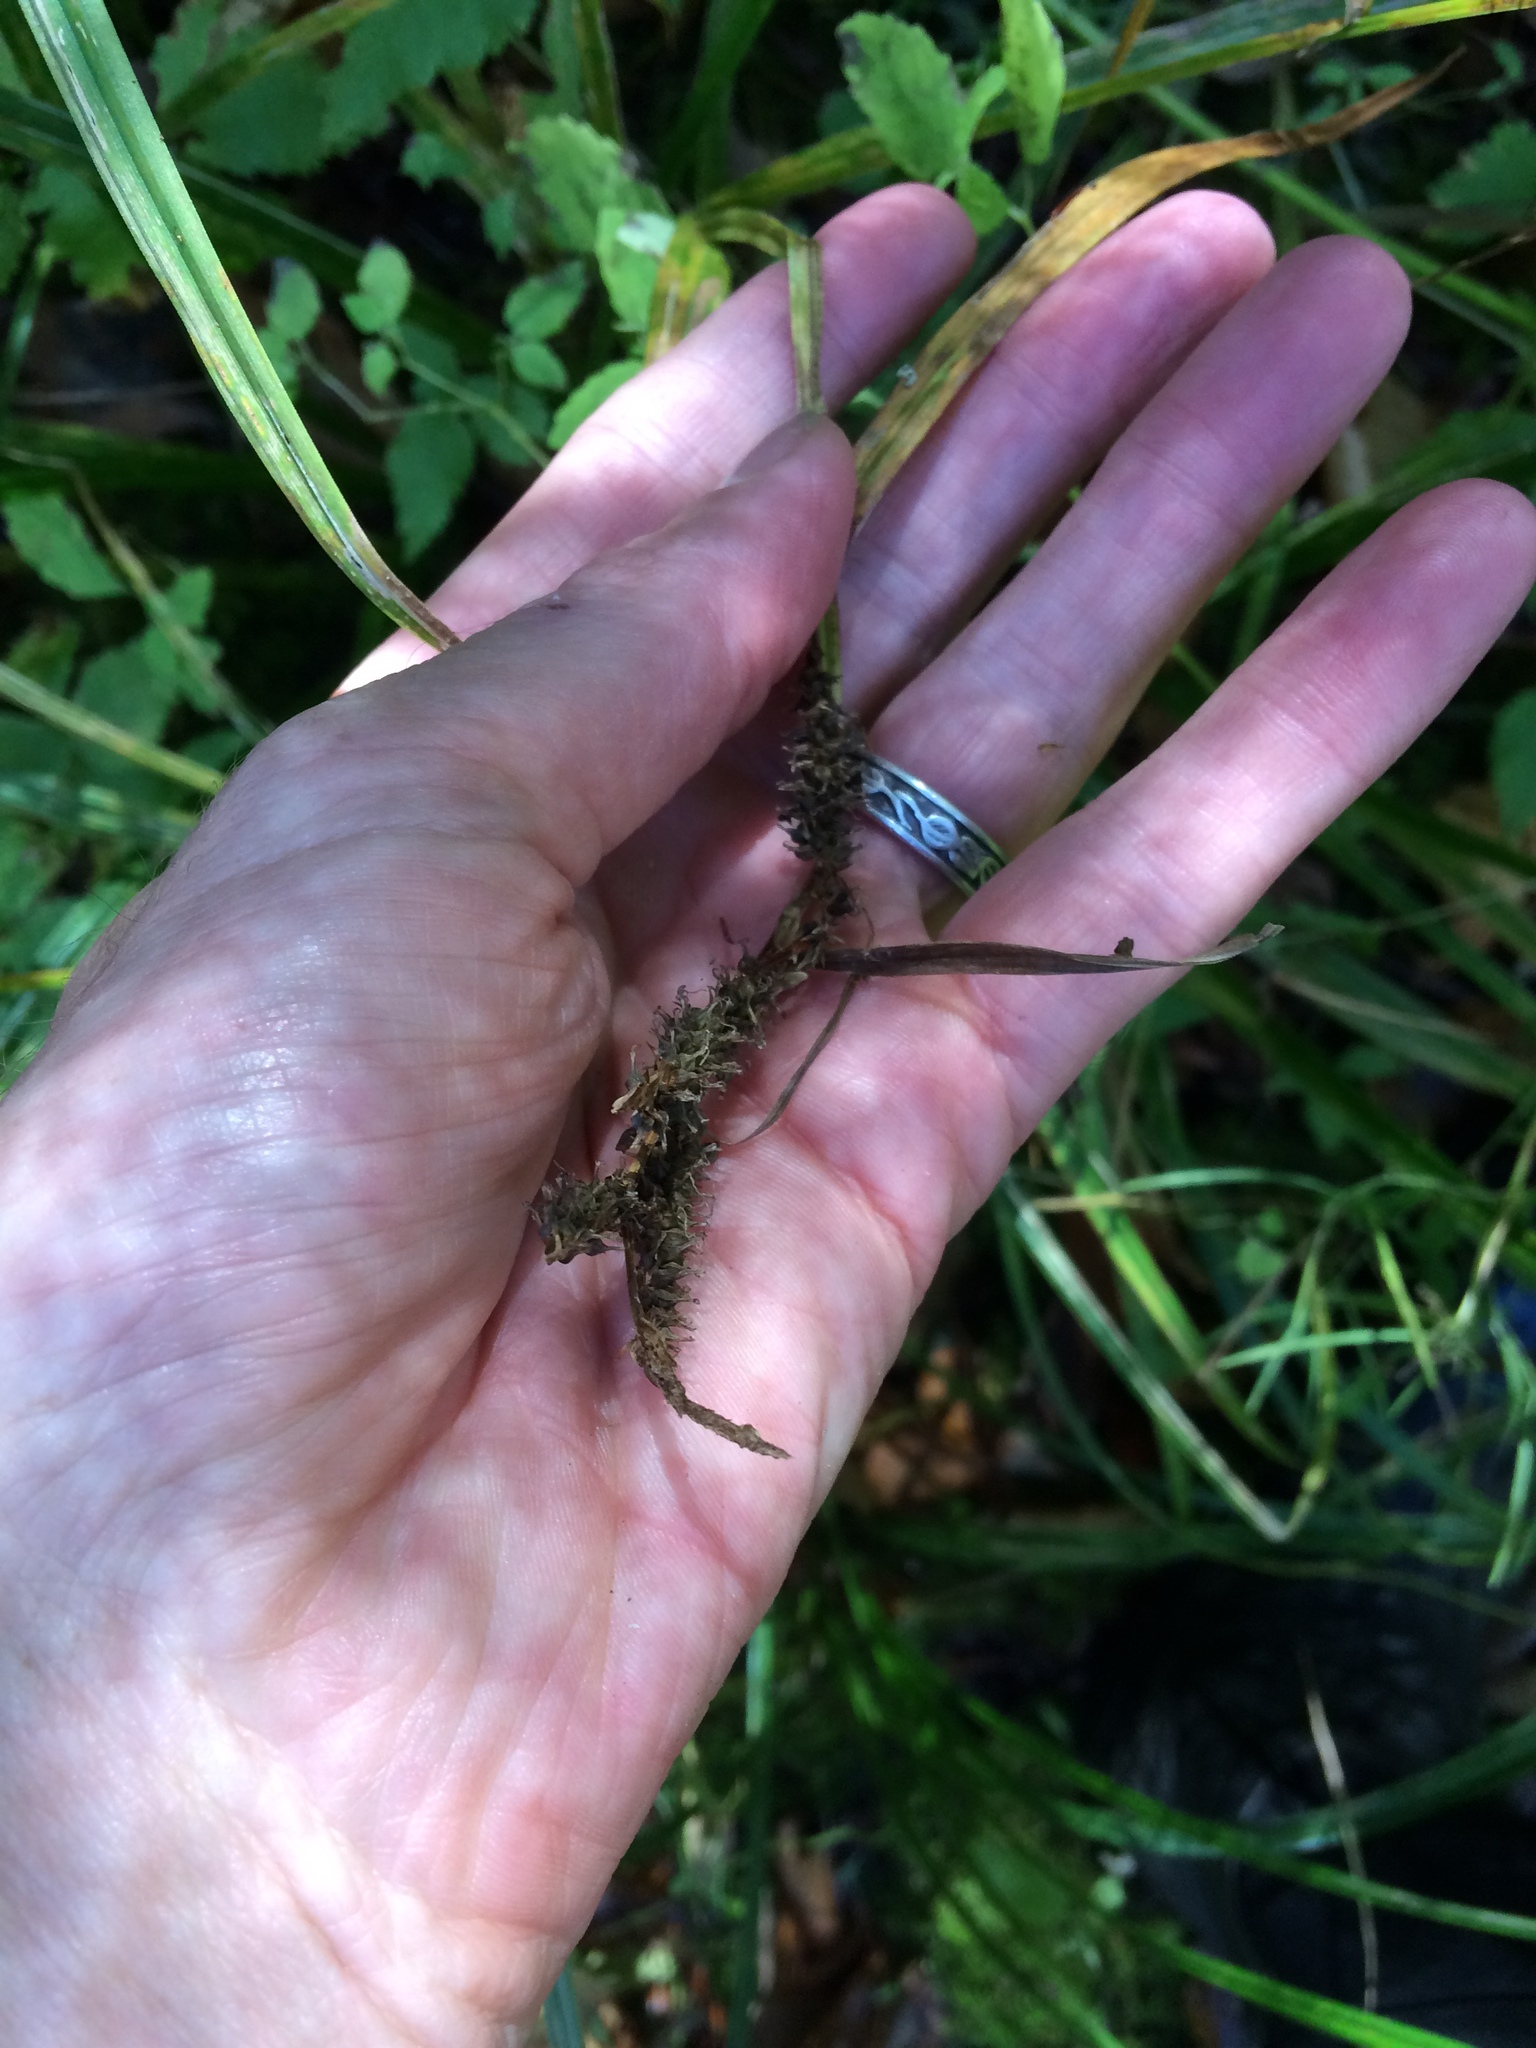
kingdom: Plantae
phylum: Tracheophyta
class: Liliopsida
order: Poales
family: Cyperaceae
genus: Carex
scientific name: Carex scabrata
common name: Eastern rough sedge
